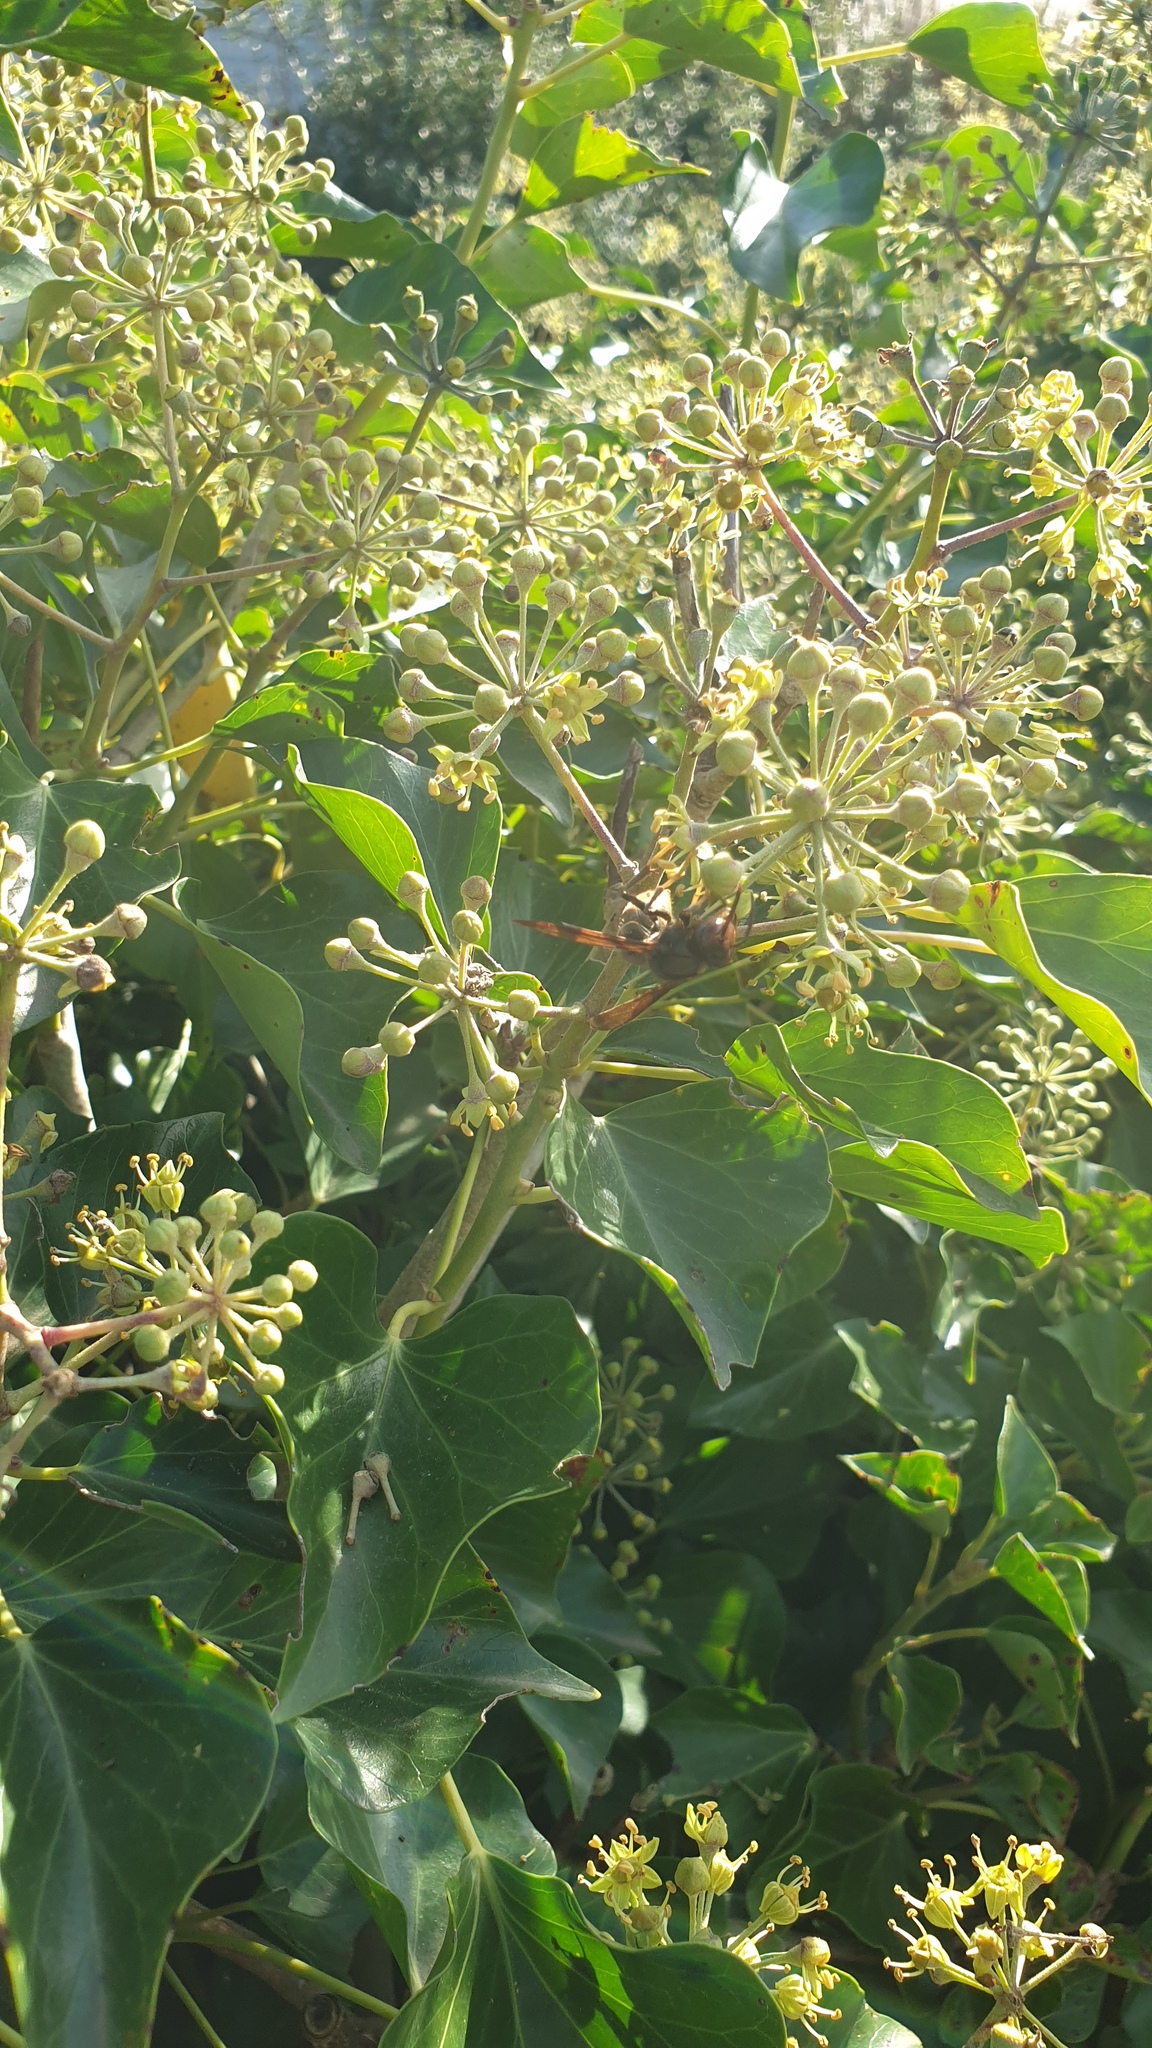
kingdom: Animalia
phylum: Arthropoda
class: Insecta
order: Hymenoptera
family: Vespidae
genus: Vespa
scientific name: Vespa velutina
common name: Asian hornet
